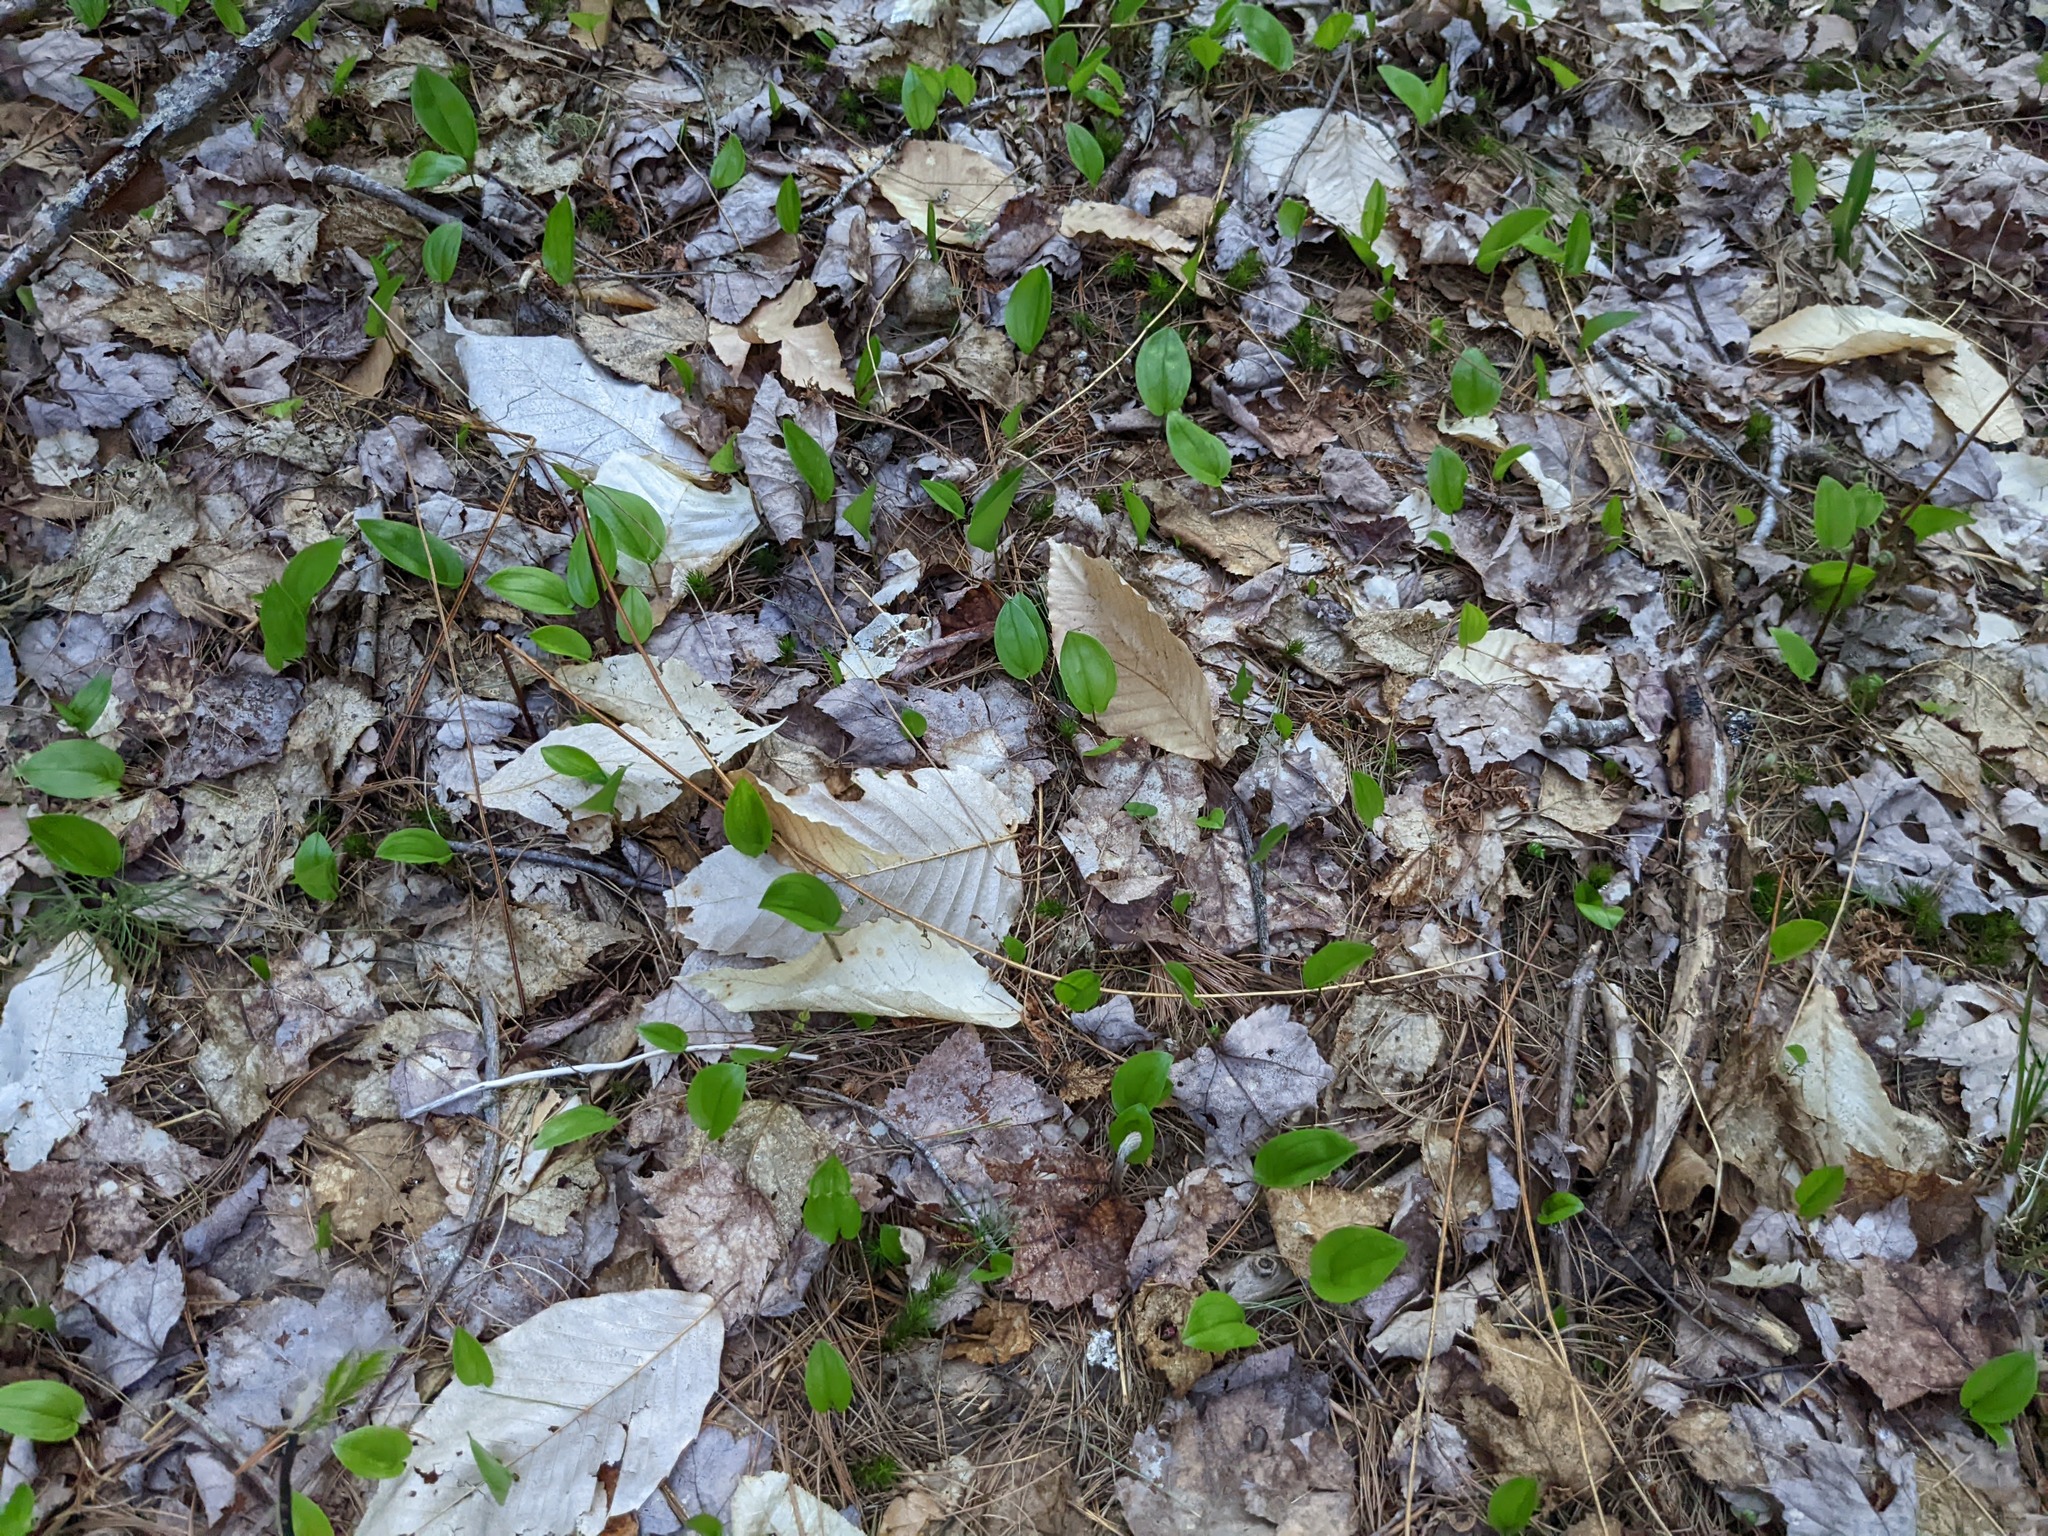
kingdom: Plantae
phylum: Tracheophyta
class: Magnoliopsida
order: Fagales
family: Fagaceae
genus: Fagus
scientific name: Fagus grandifolia
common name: American beech
